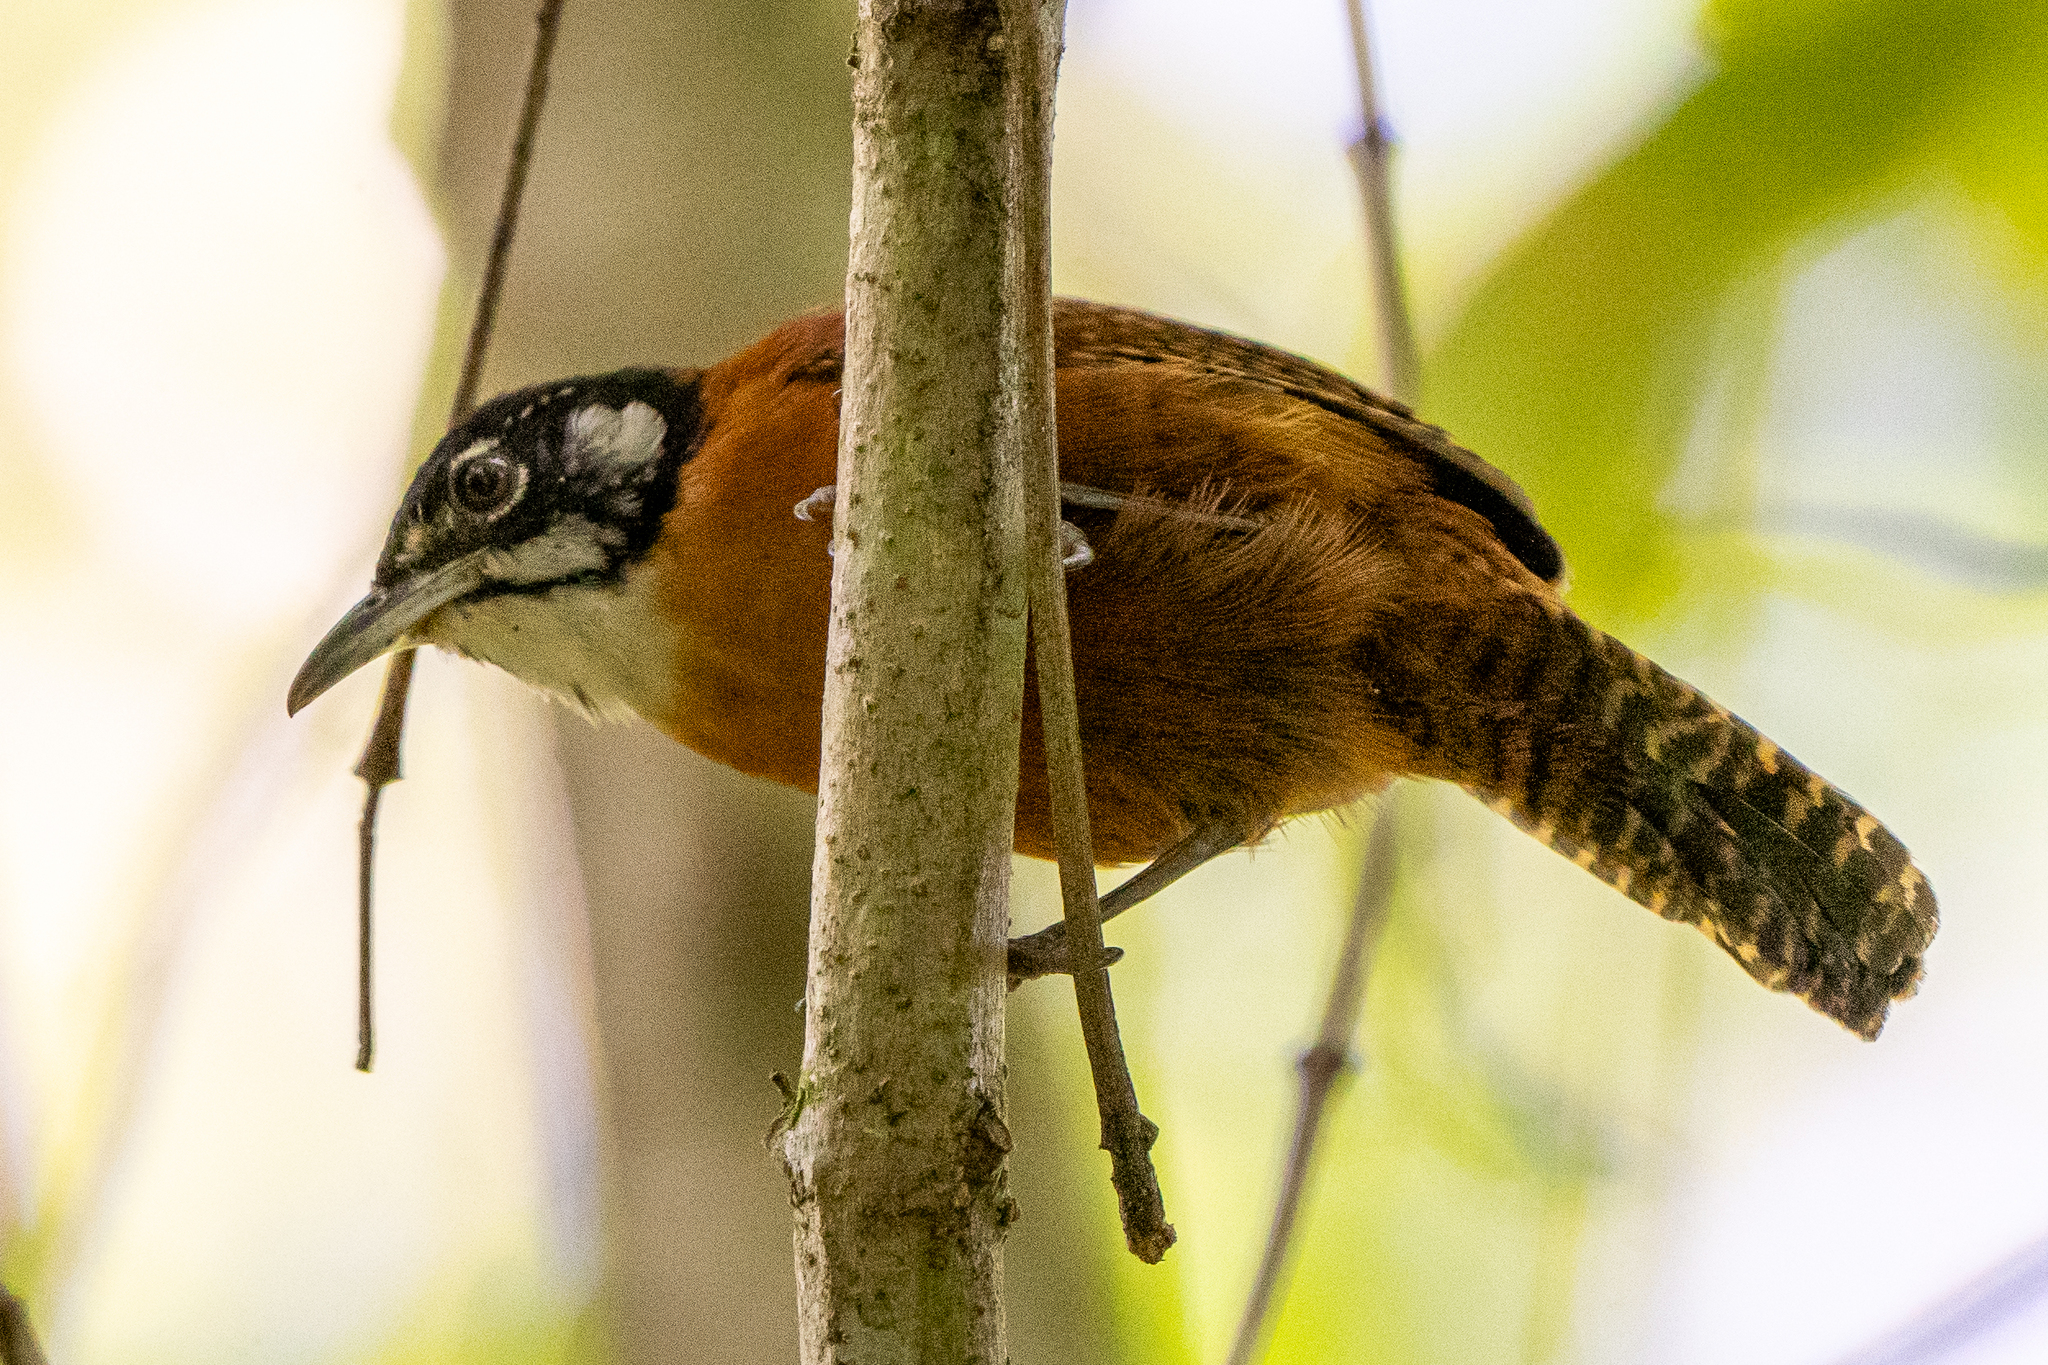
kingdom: Animalia
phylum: Chordata
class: Aves
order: Passeriformes
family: Troglodytidae
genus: Cantorchilus
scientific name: Cantorchilus nigricapillus
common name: Bay wren
